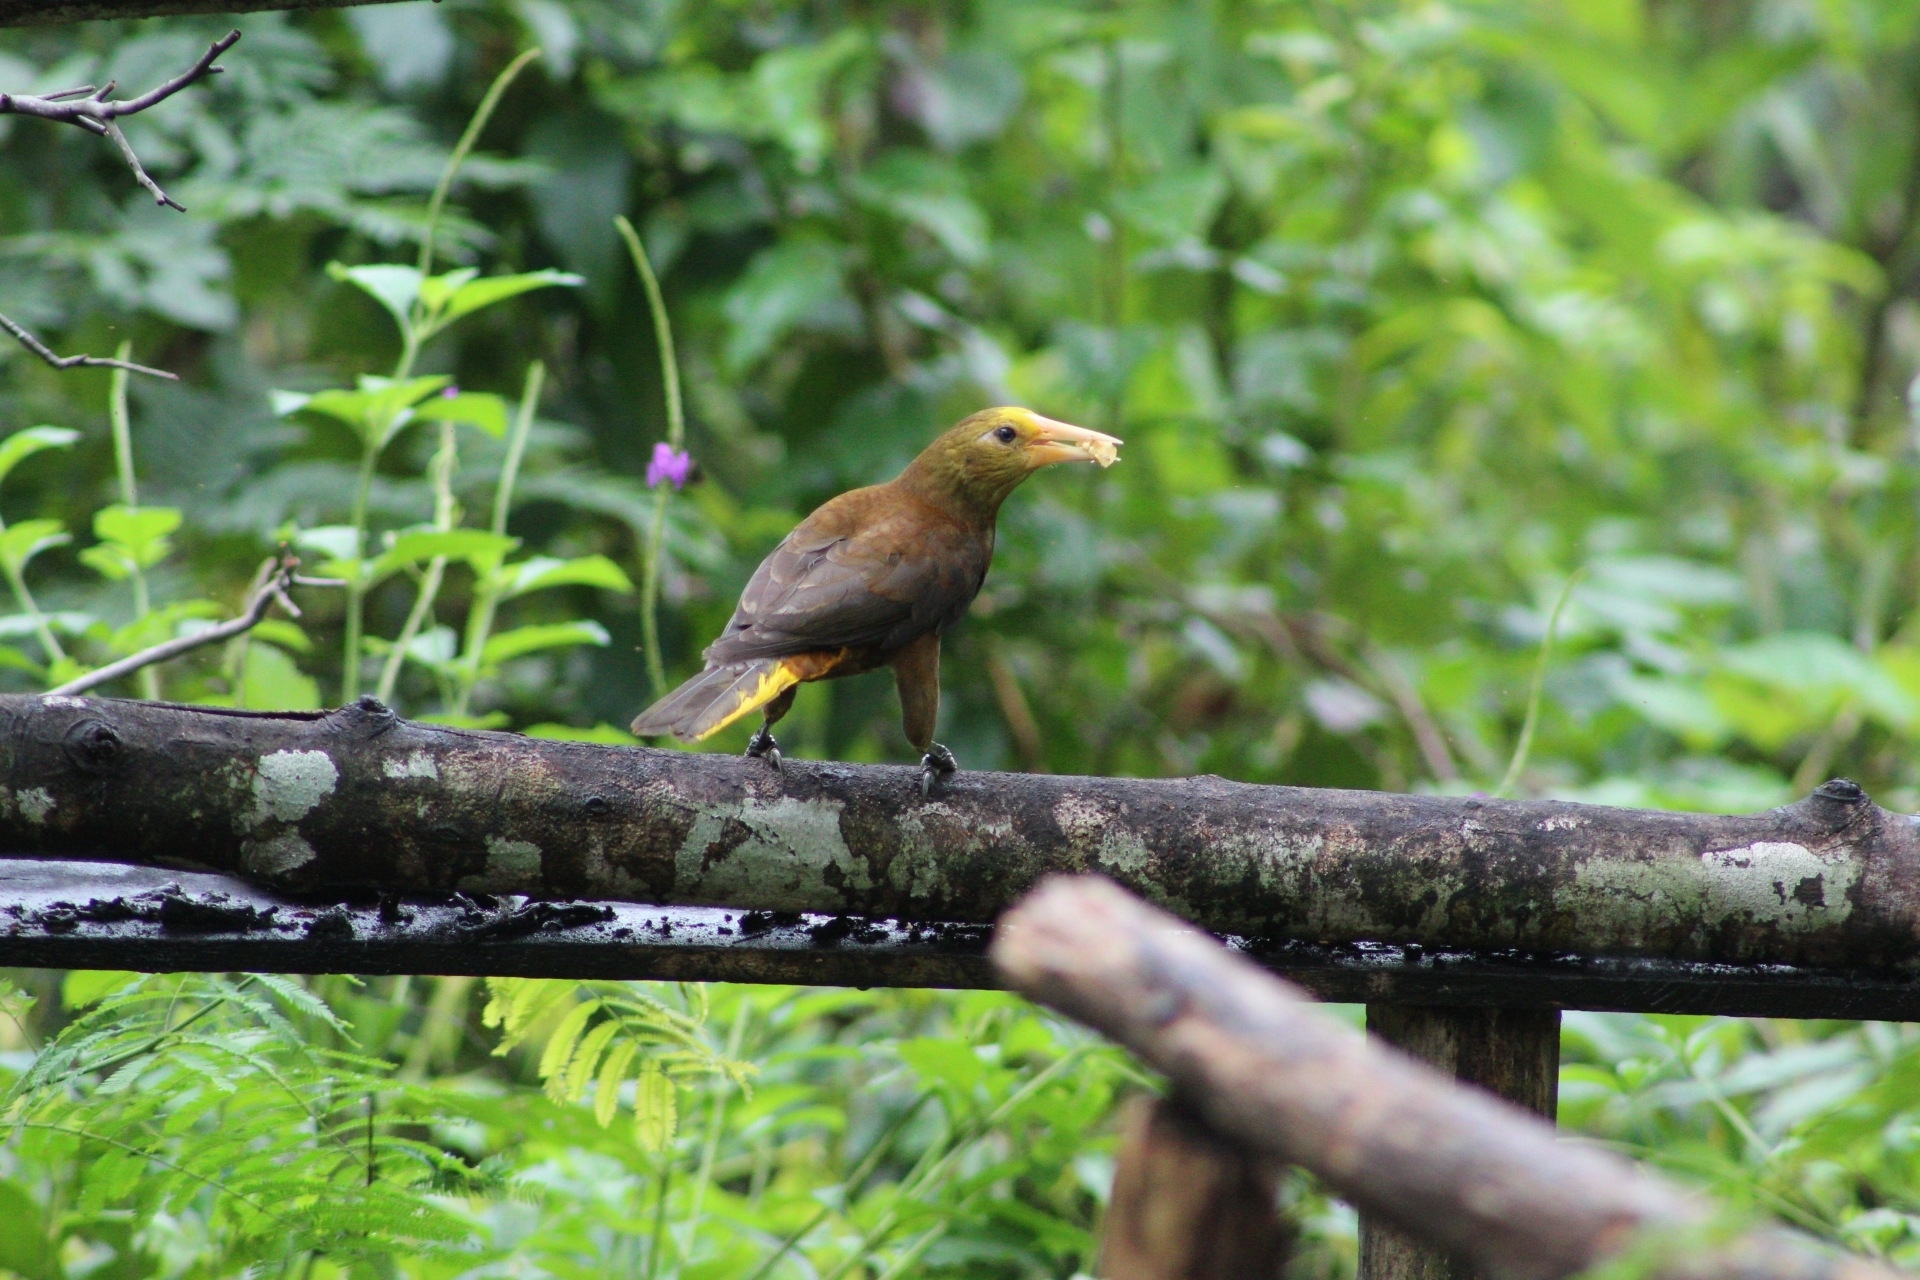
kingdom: Animalia
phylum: Chordata
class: Aves
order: Passeriformes
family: Icteridae
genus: Psarocolius
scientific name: Psarocolius angustifrons
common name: Russet-backed oropendola
